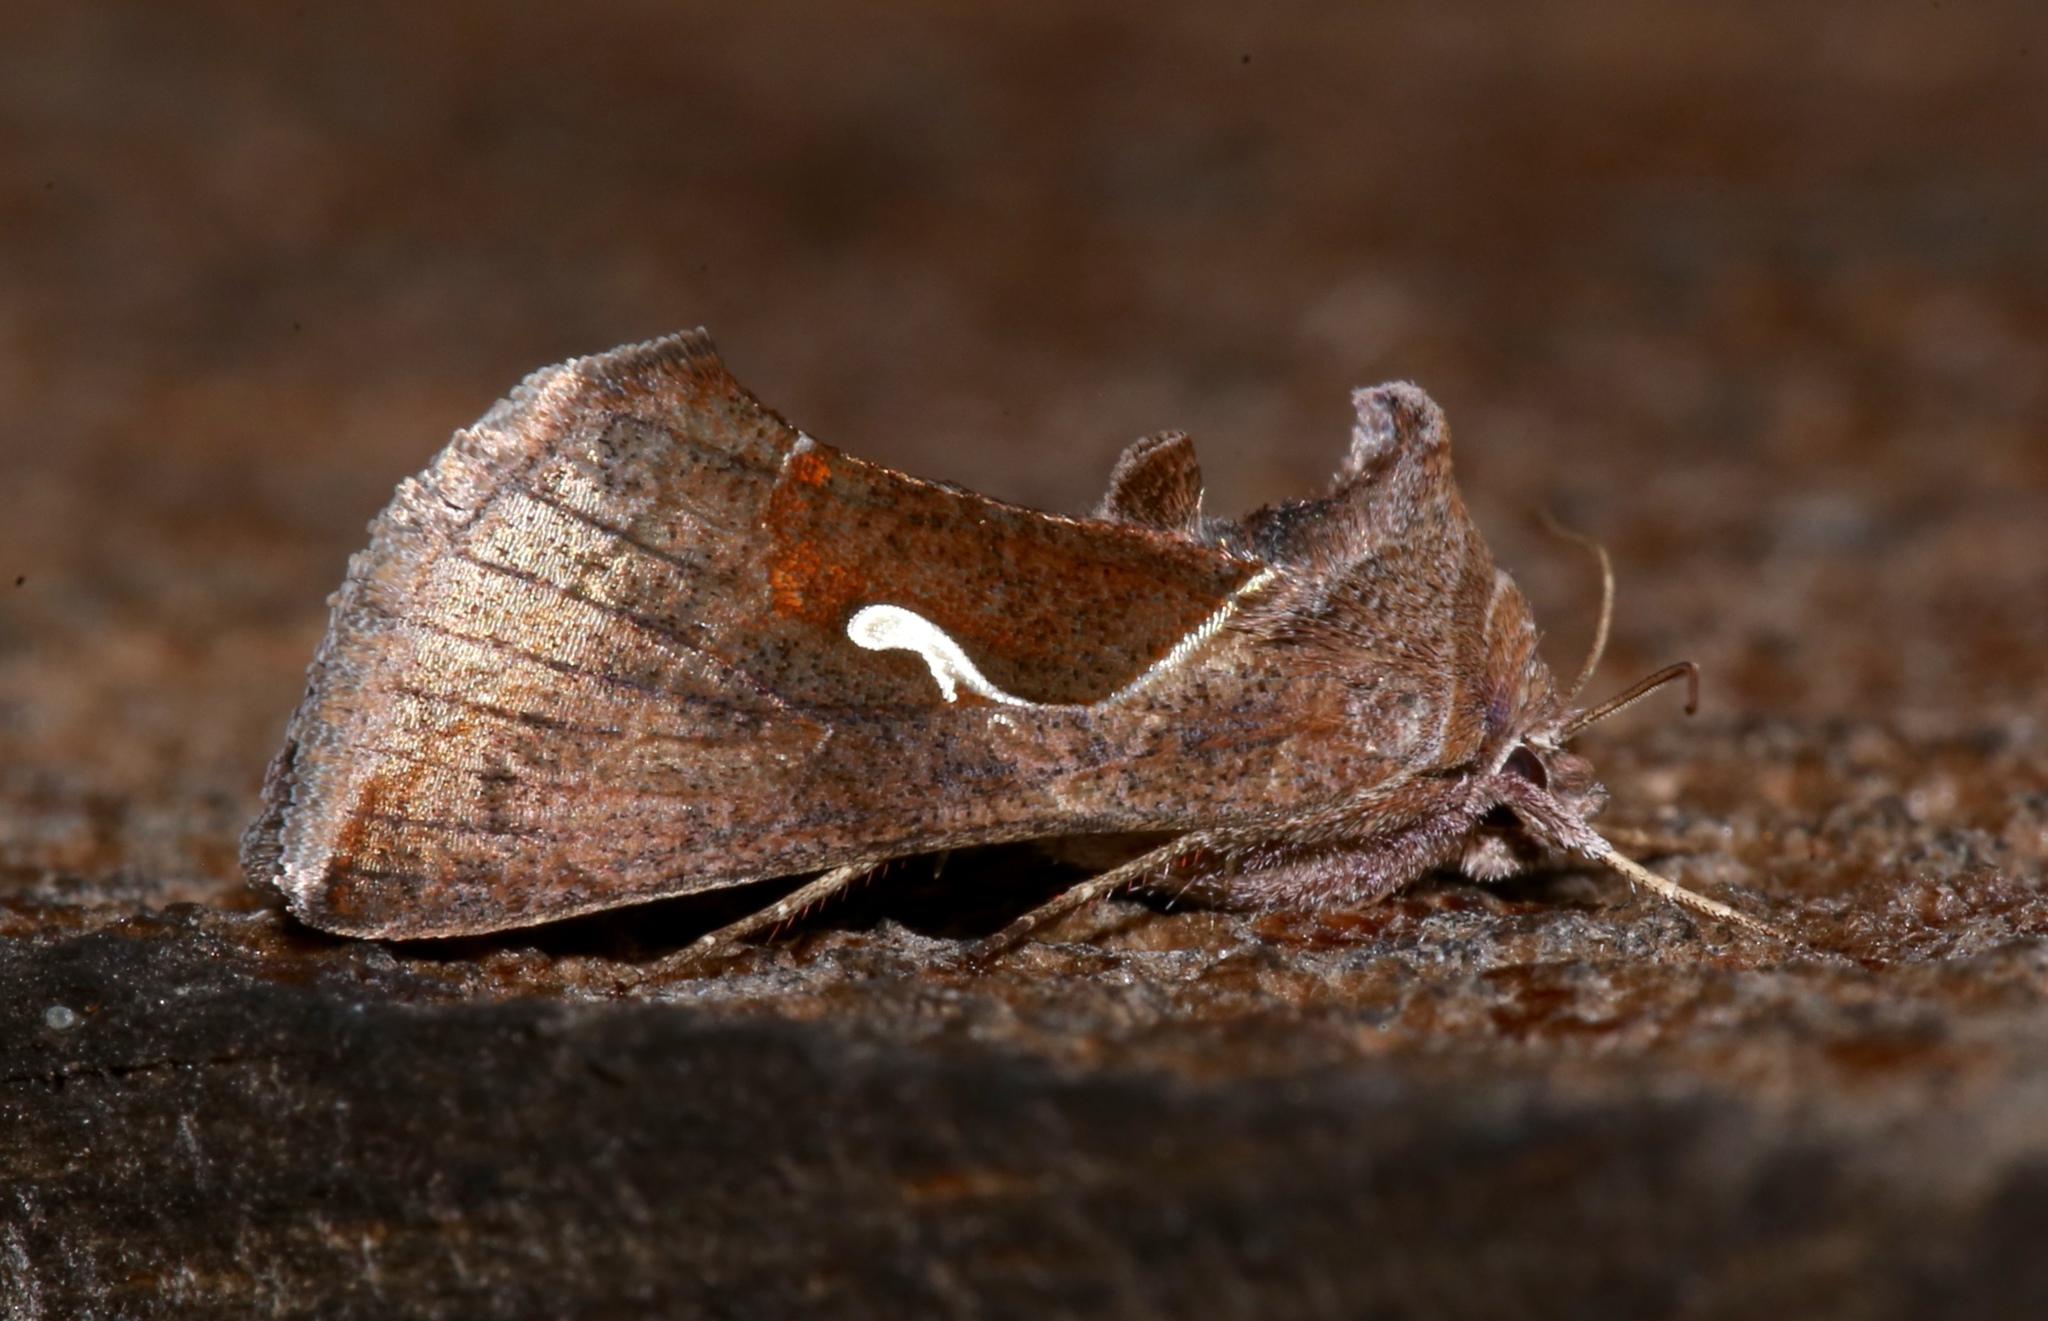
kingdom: Animalia
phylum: Arthropoda
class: Insecta
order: Lepidoptera
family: Noctuidae
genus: Anagrapha
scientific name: Anagrapha falcifera
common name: Celery looper
